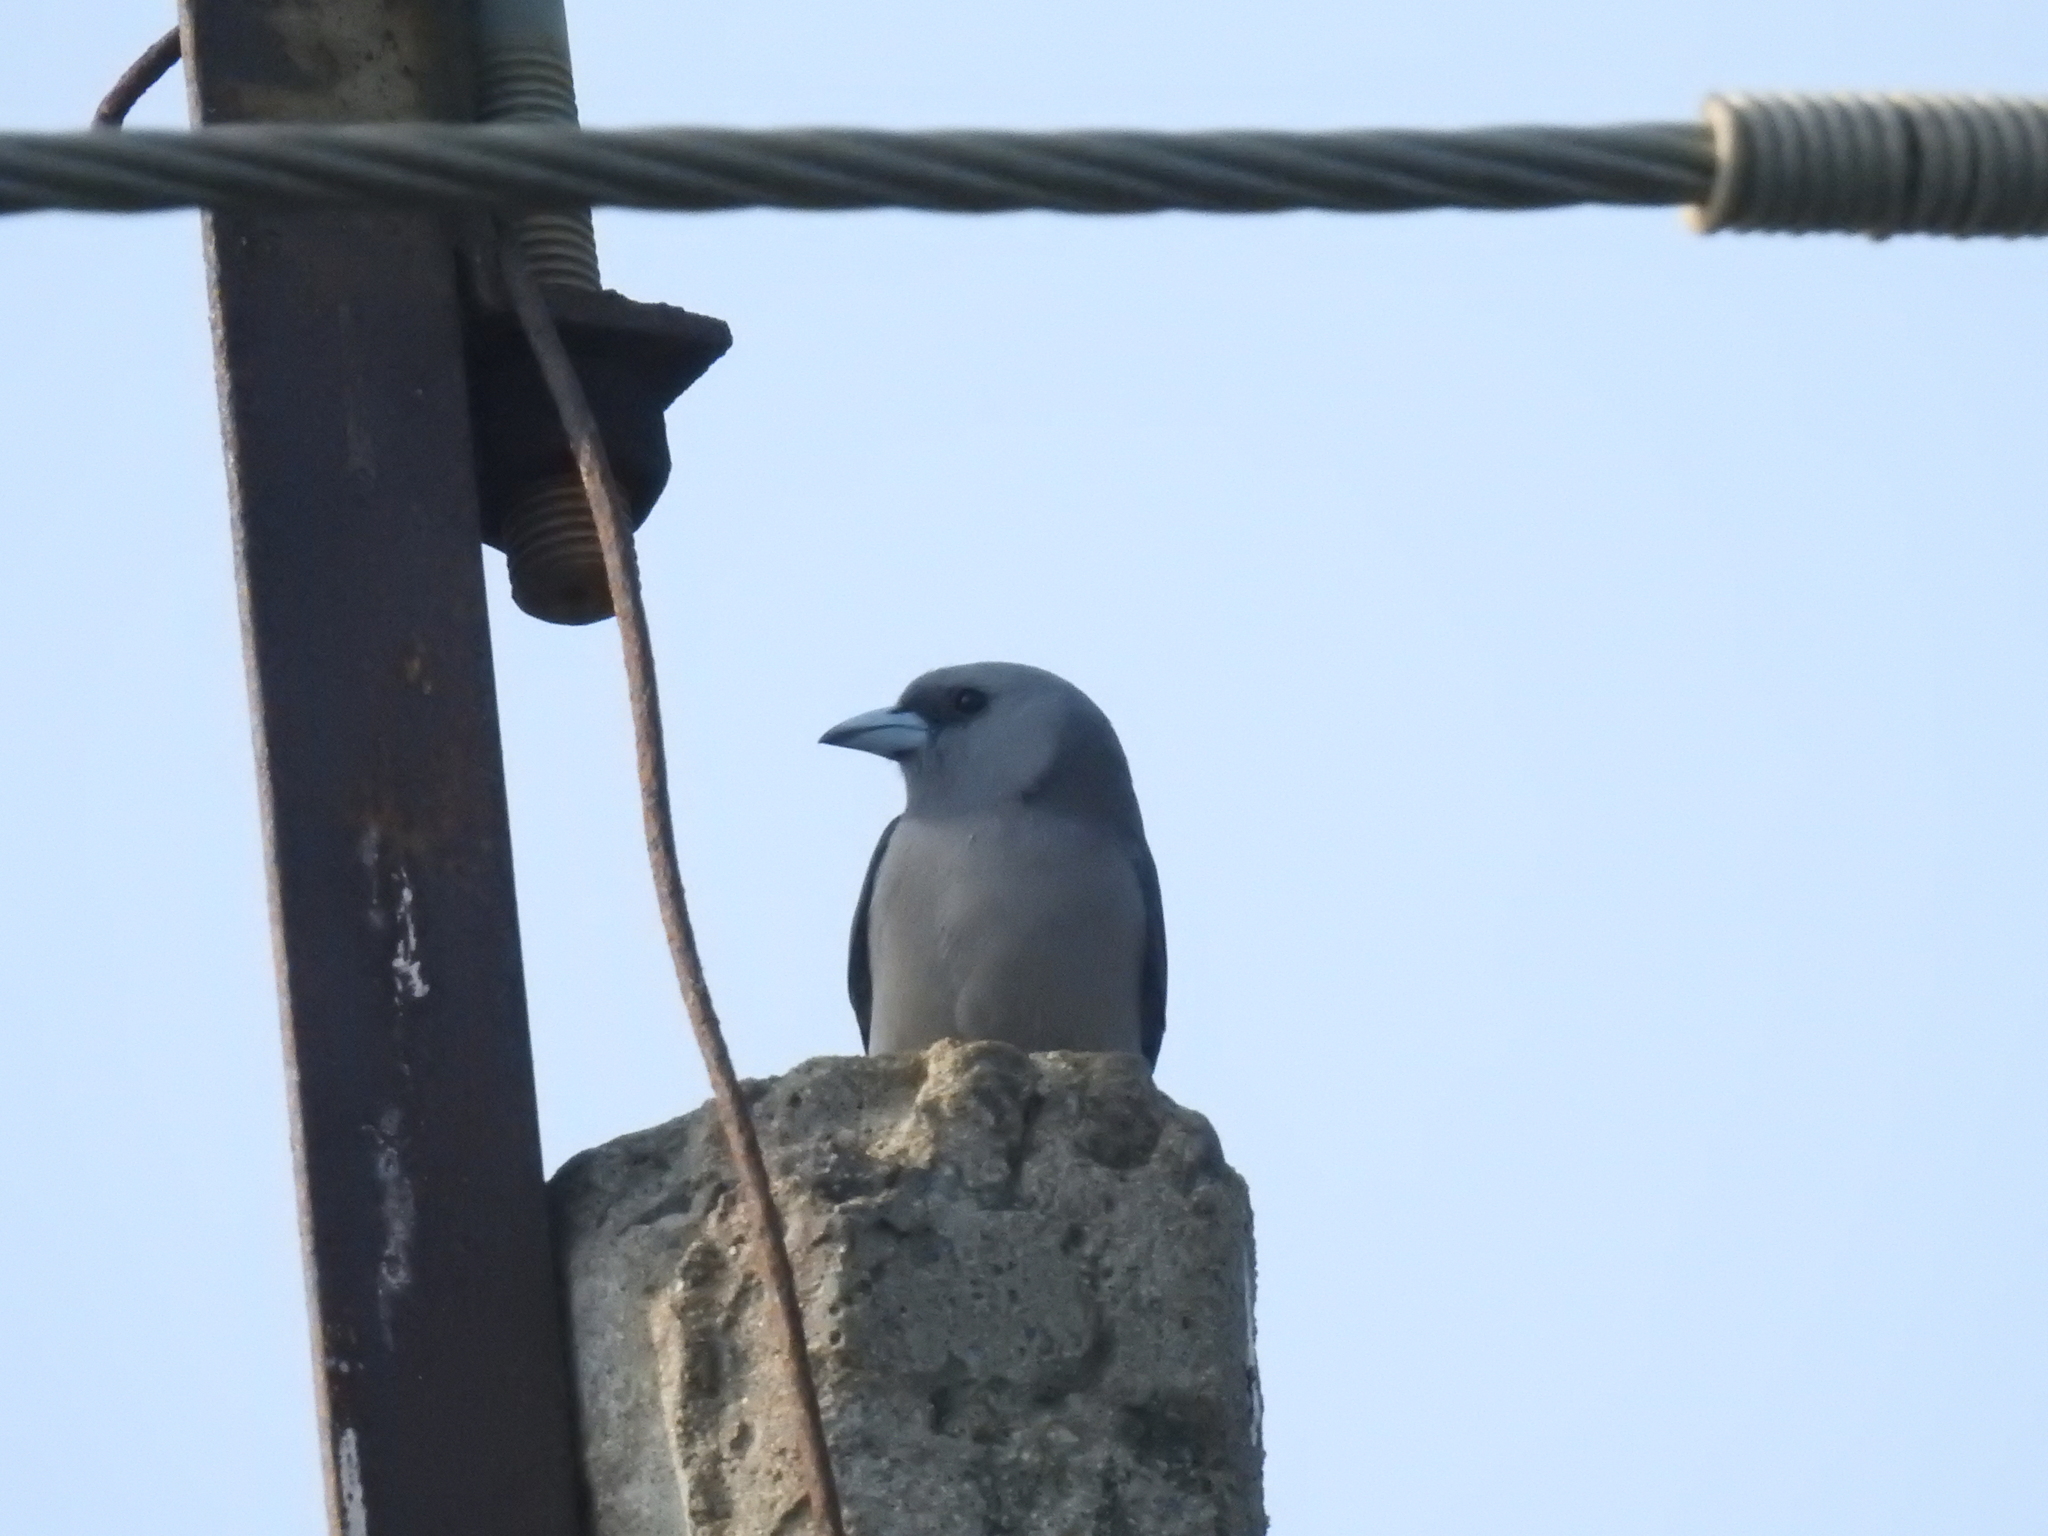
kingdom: Animalia
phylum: Chordata
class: Aves
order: Passeriformes
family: Artamidae
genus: Artamus
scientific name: Artamus fuscus
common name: Ashy woodswallow
